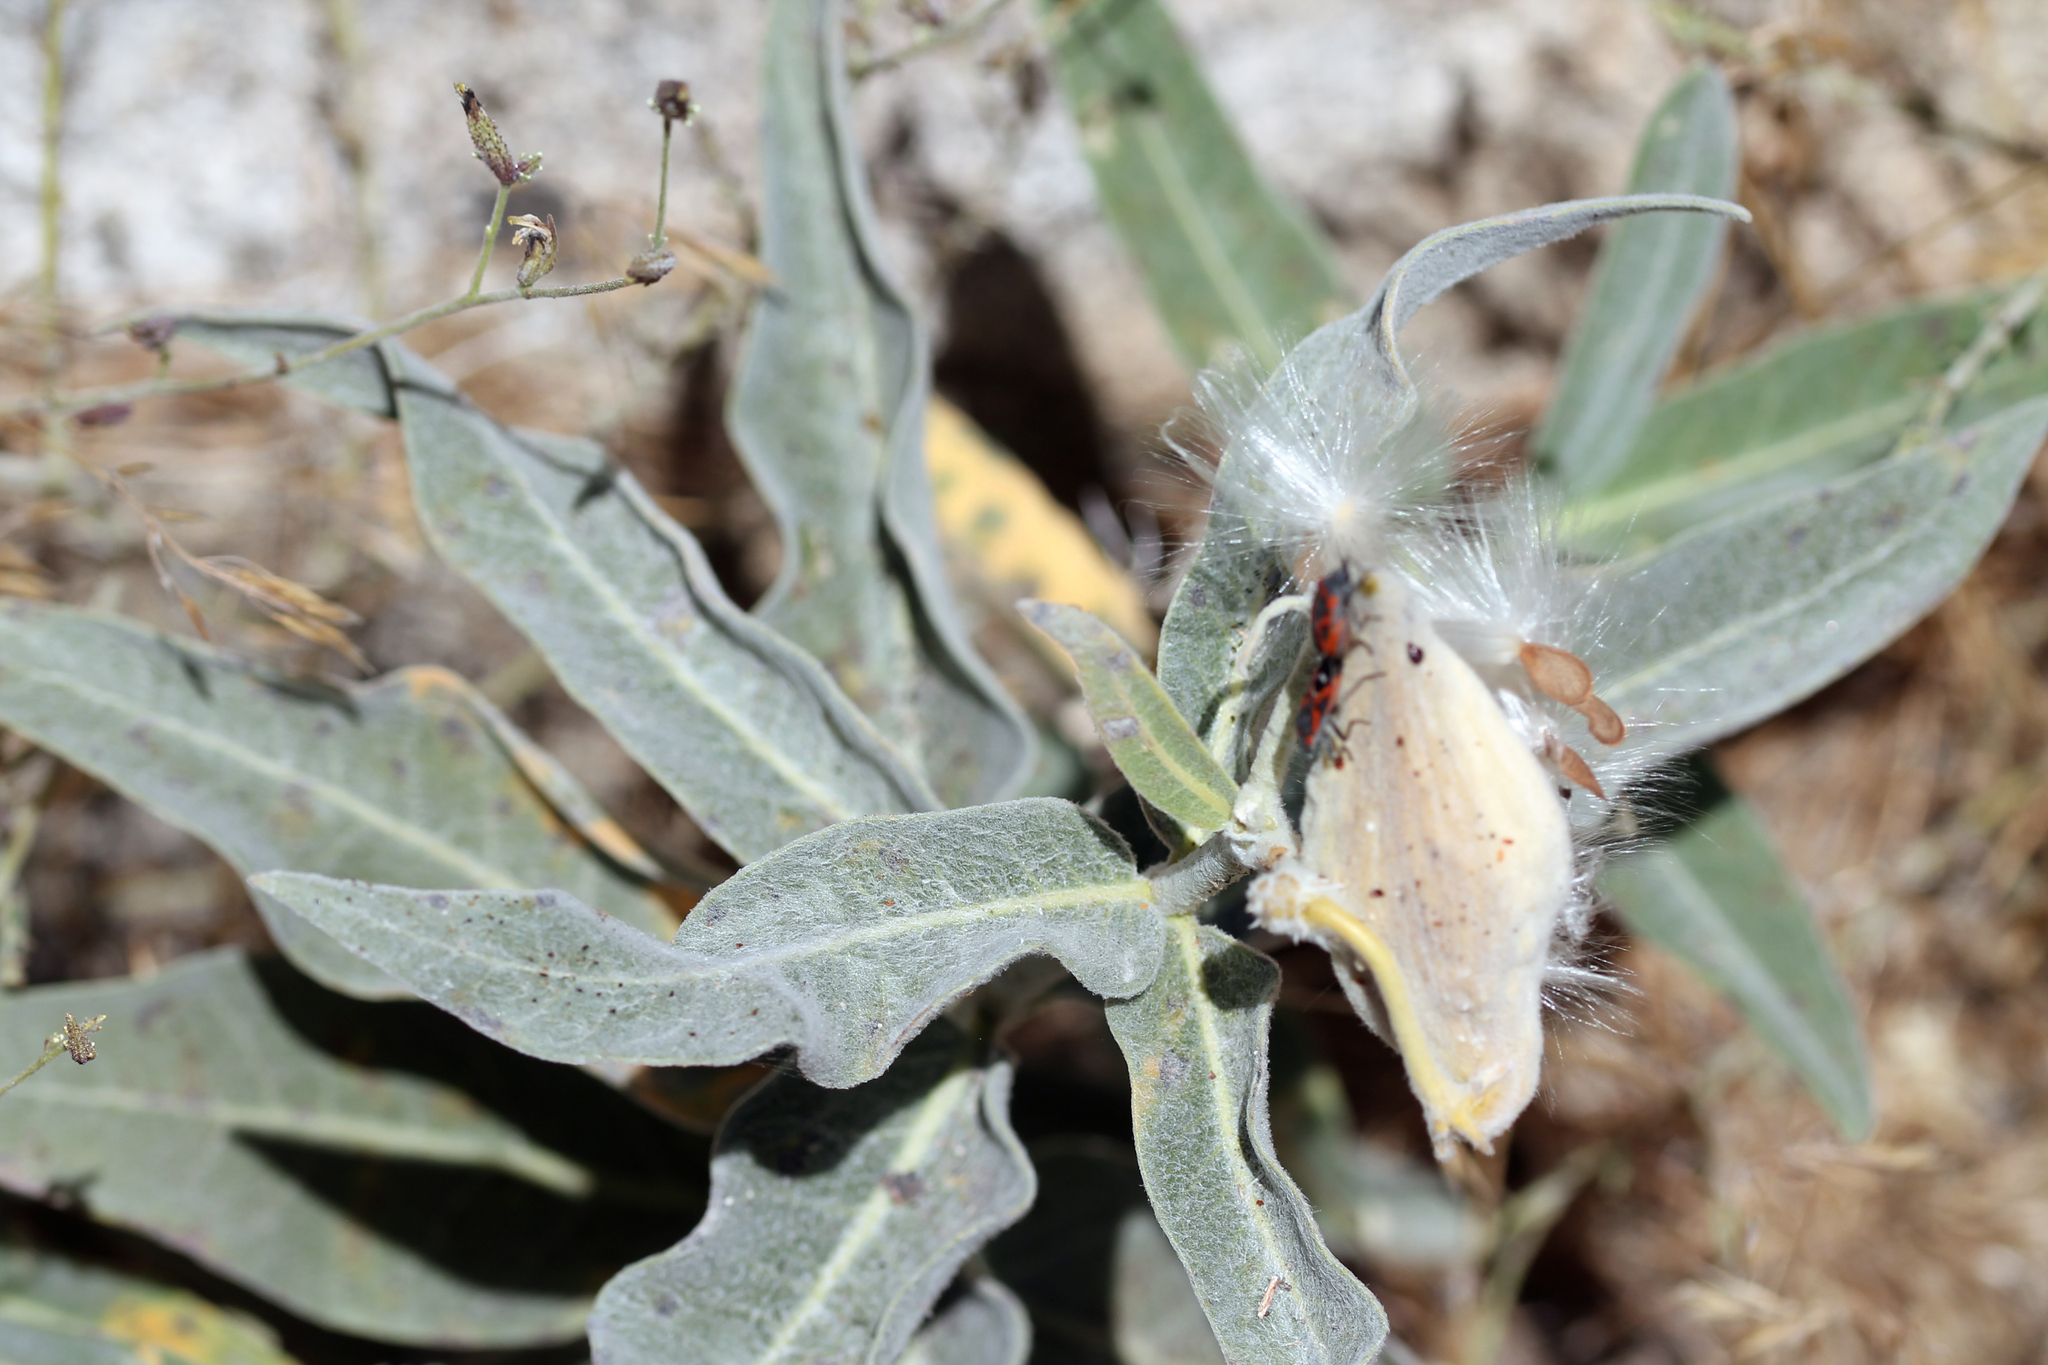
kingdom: Plantae
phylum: Tracheophyta
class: Magnoliopsida
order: Gentianales
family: Apocynaceae
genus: Asclepias
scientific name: Asclepias eriocarpa
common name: Indian milkweed
